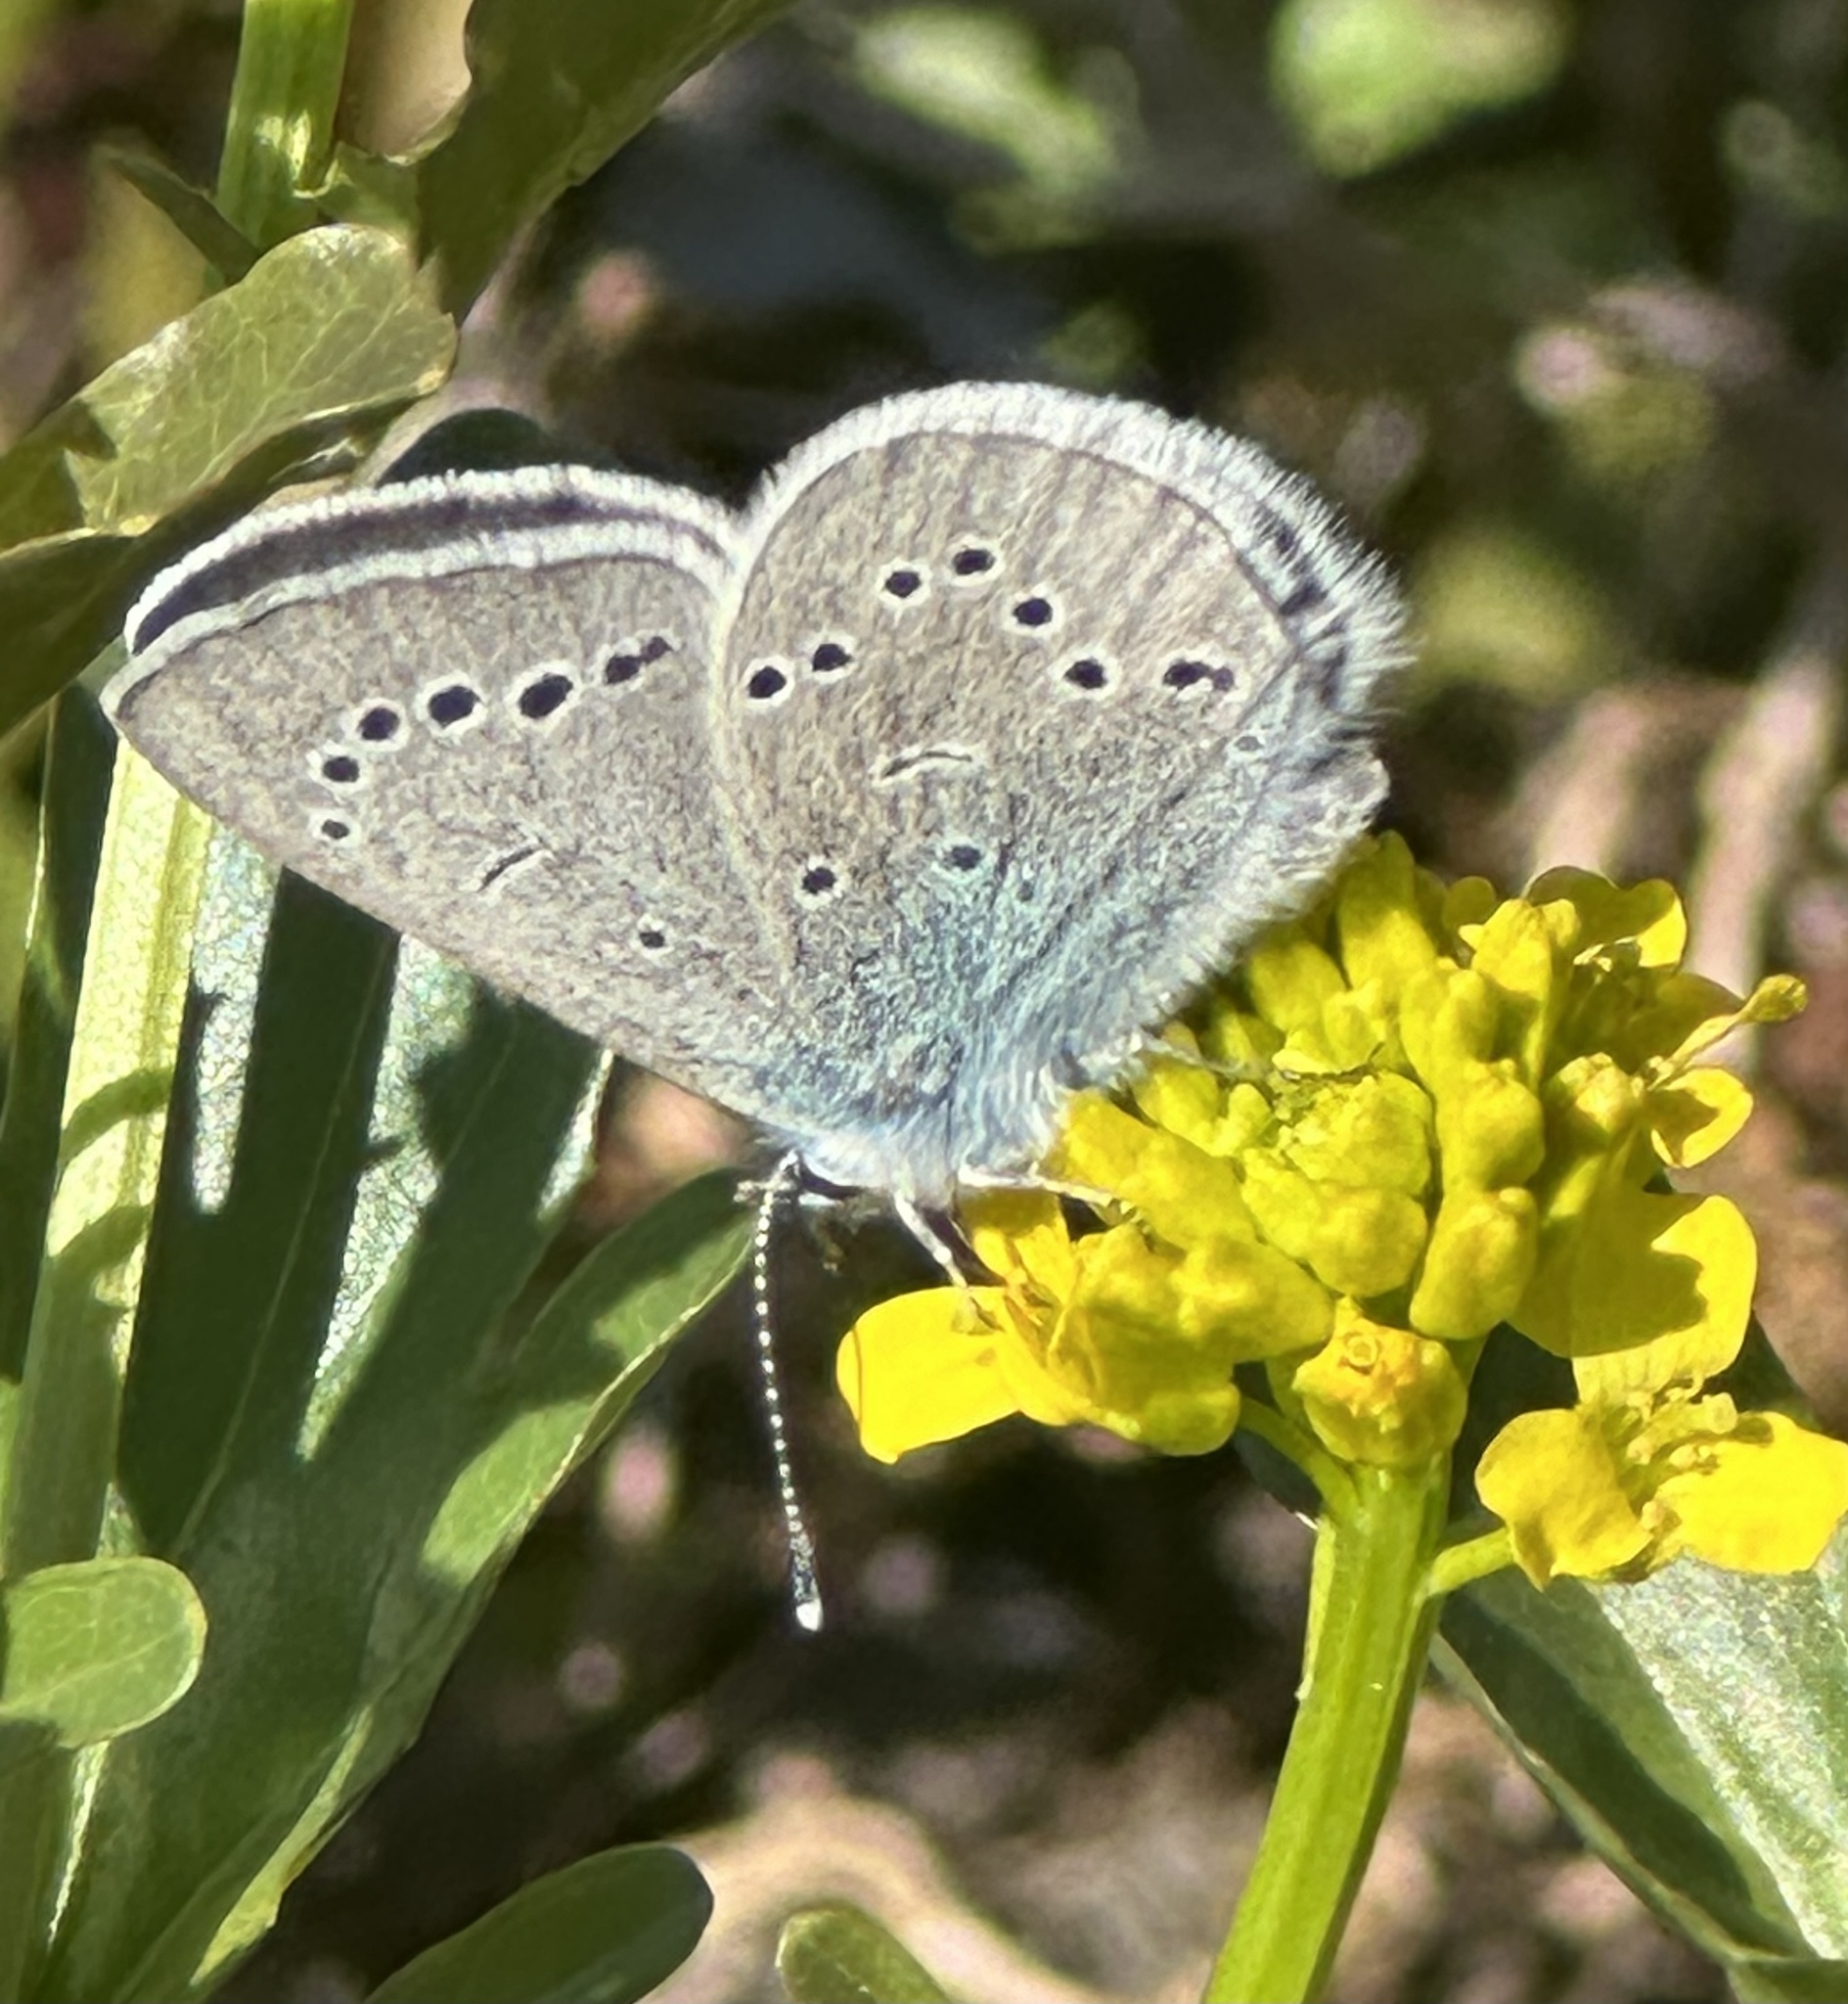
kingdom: Animalia
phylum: Arthropoda
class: Insecta
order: Lepidoptera
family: Lycaenidae
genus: Glaucopsyche
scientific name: Glaucopsyche lygdamus
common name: Silvery blue
